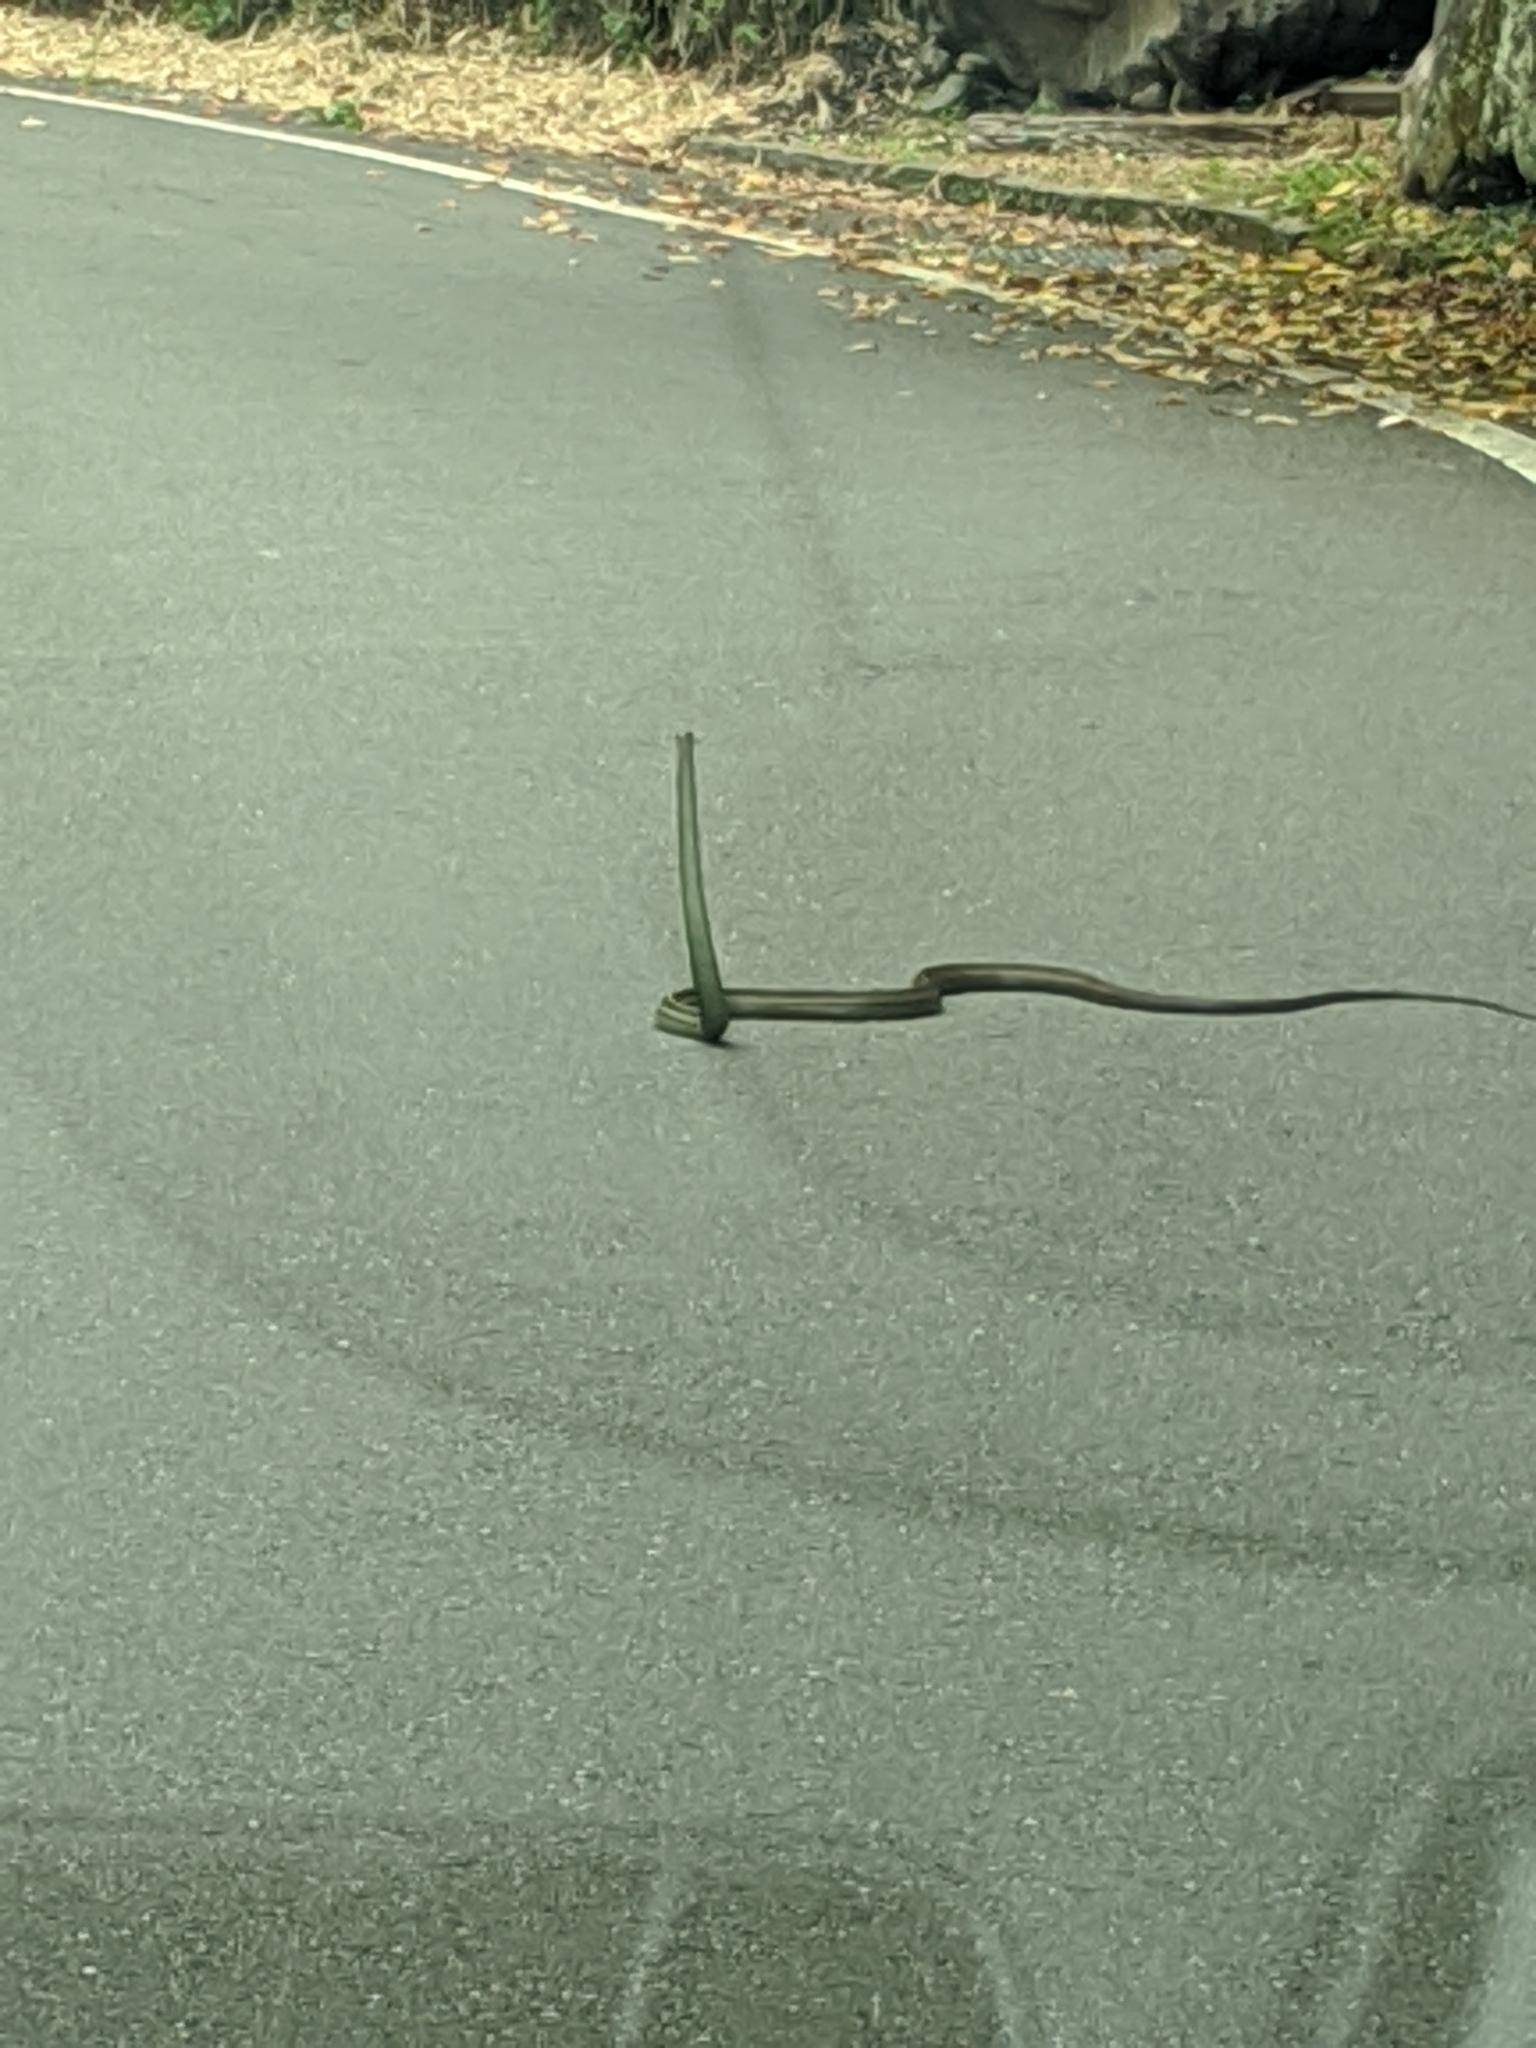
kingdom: Animalia
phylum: Chordata
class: Squamata
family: Colubridae
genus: Ptyas
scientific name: Ptyas dhumnades
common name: Black-striped rat snake
